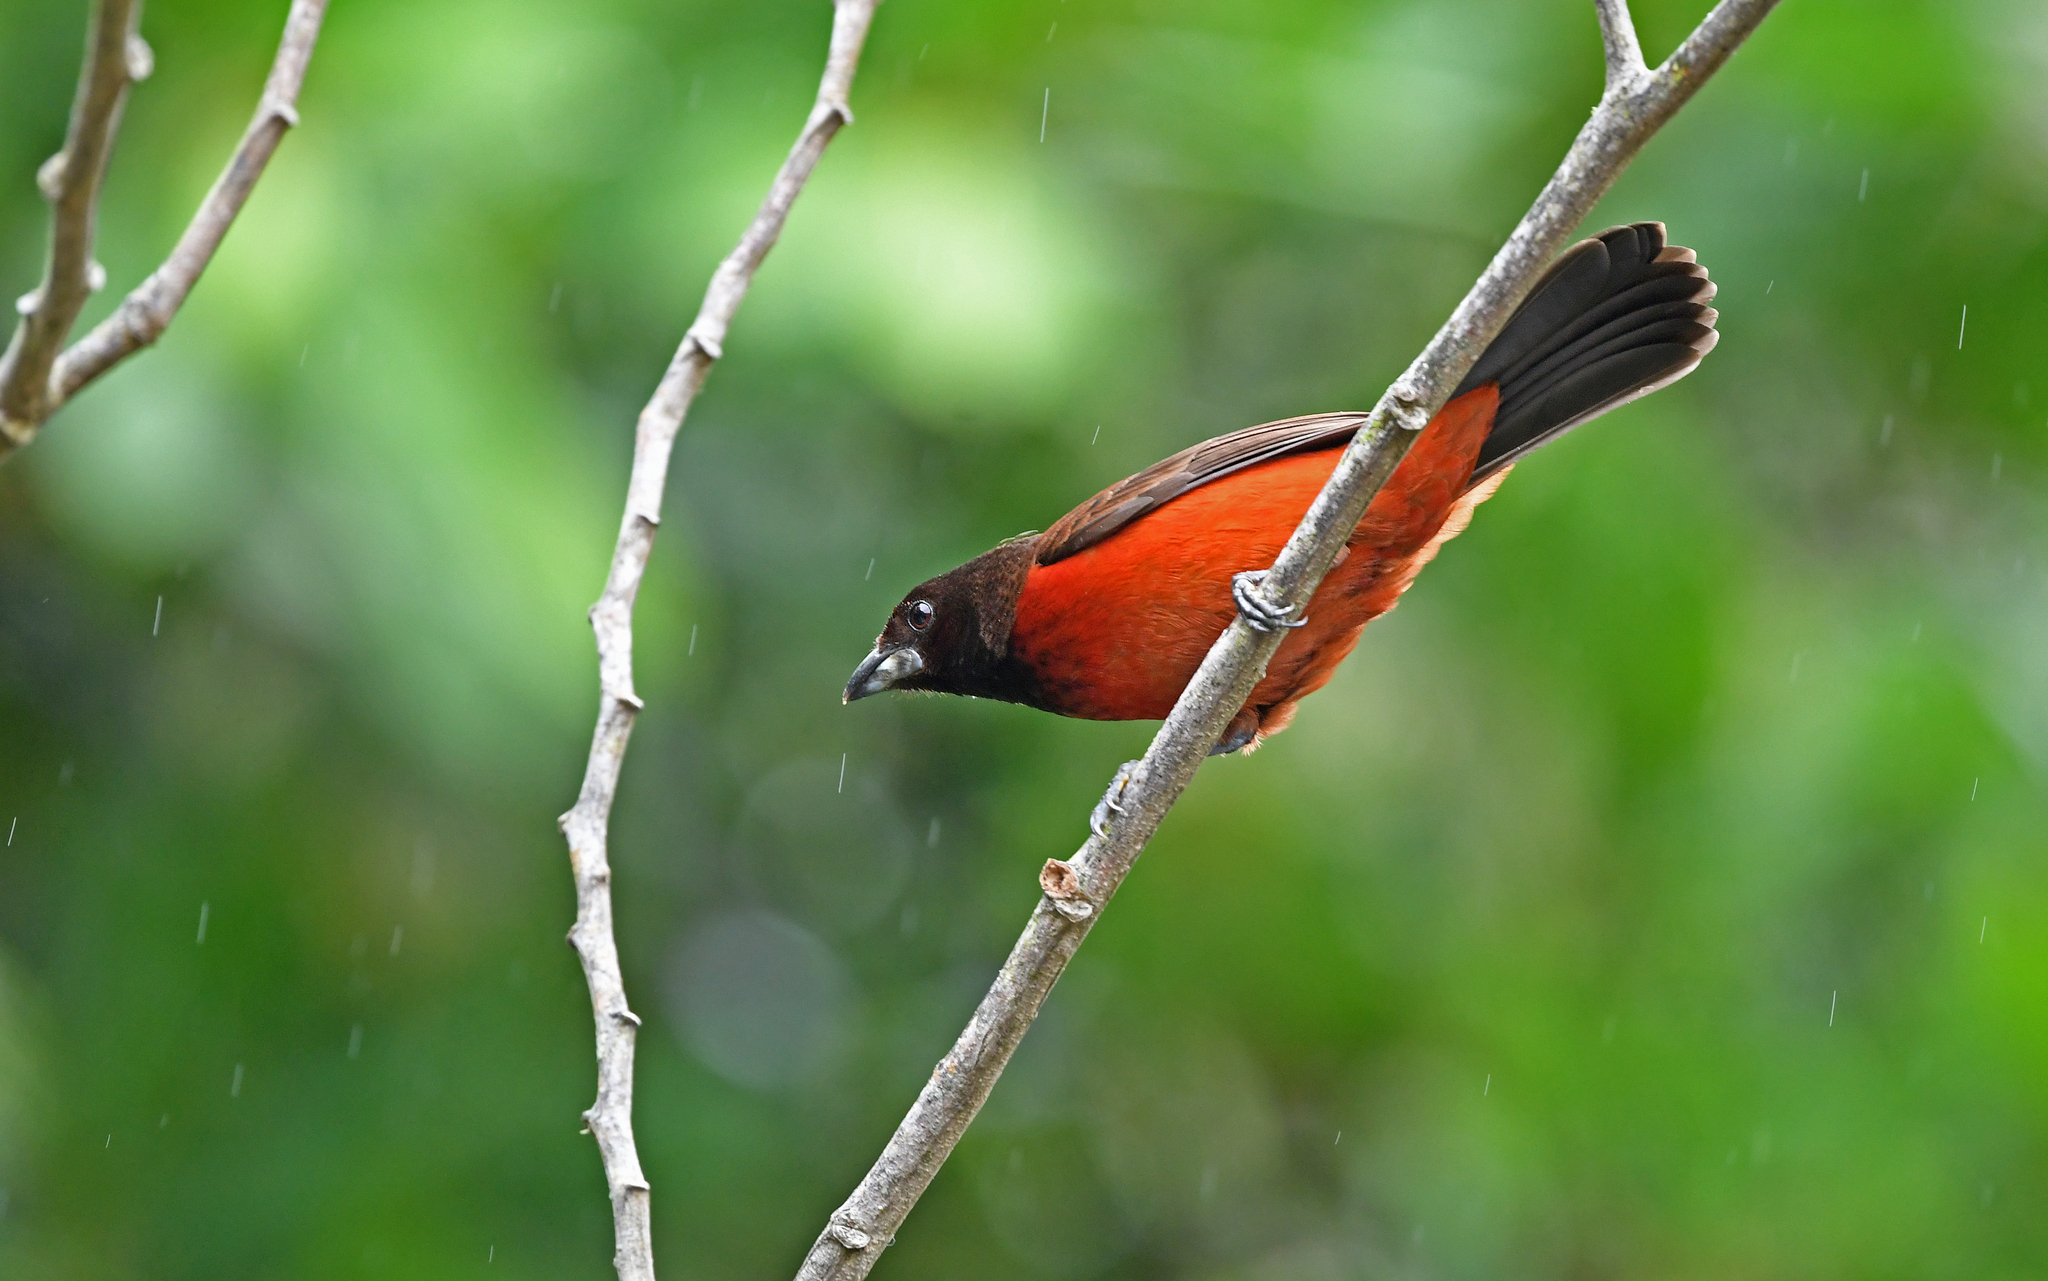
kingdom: Animalia
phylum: Chordata
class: Aves
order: Passeriformes
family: Thraupidae
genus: Ramphocelus
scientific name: Ramphocelus dimidiatus
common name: Crimson-backed tanager
